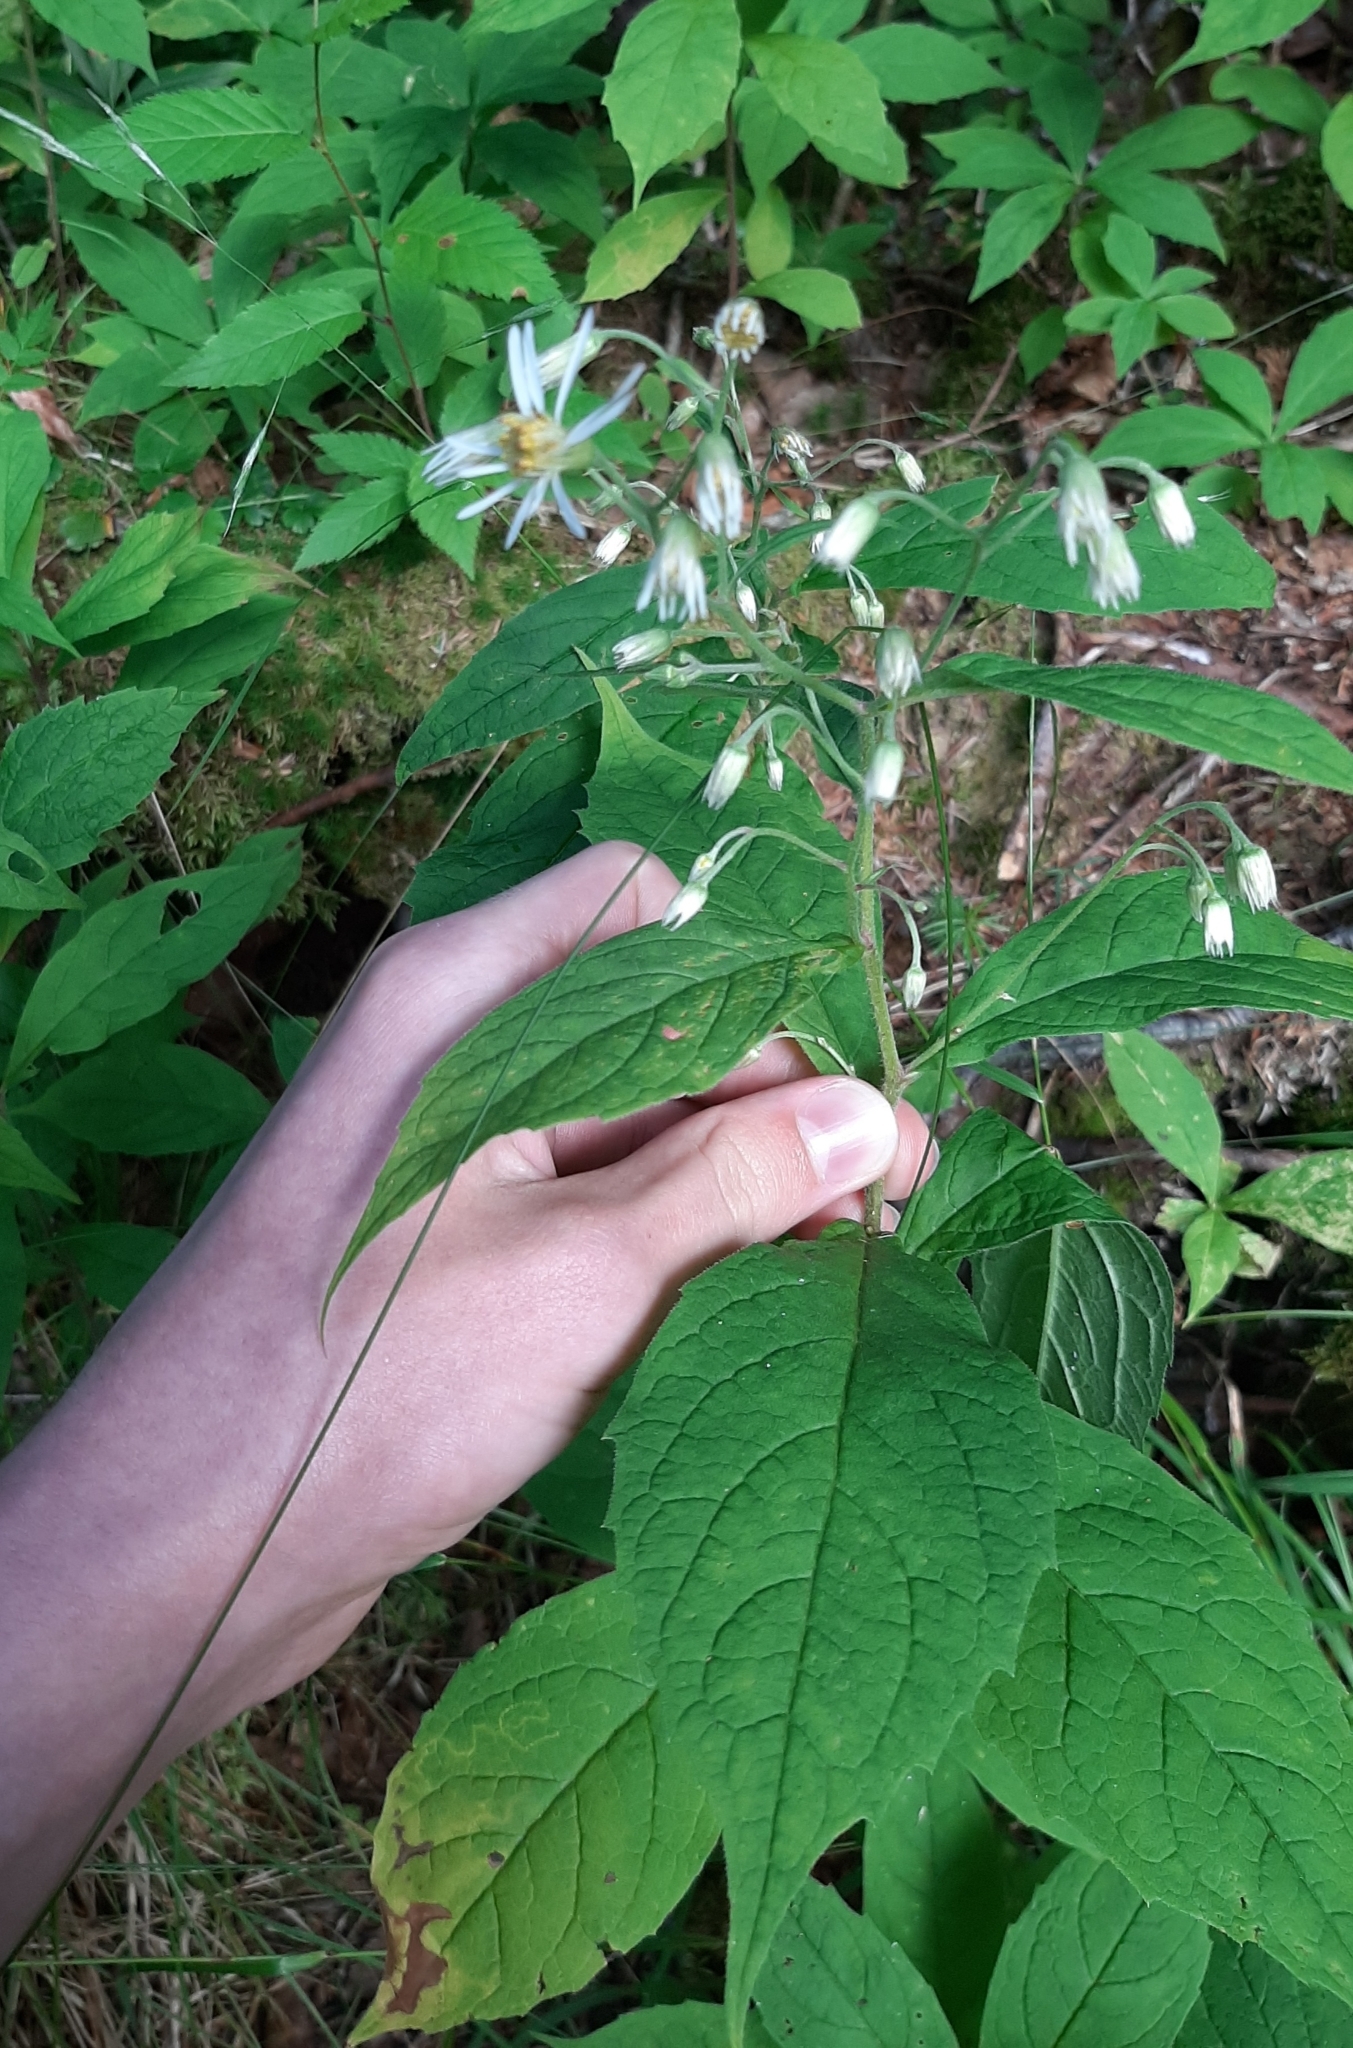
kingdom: Plantae
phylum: Tracheophyta
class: Magnoliopsida
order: Asterales
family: Asteraceae
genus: Oclemena
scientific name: Oclemena acuminata
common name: Mountain aster
